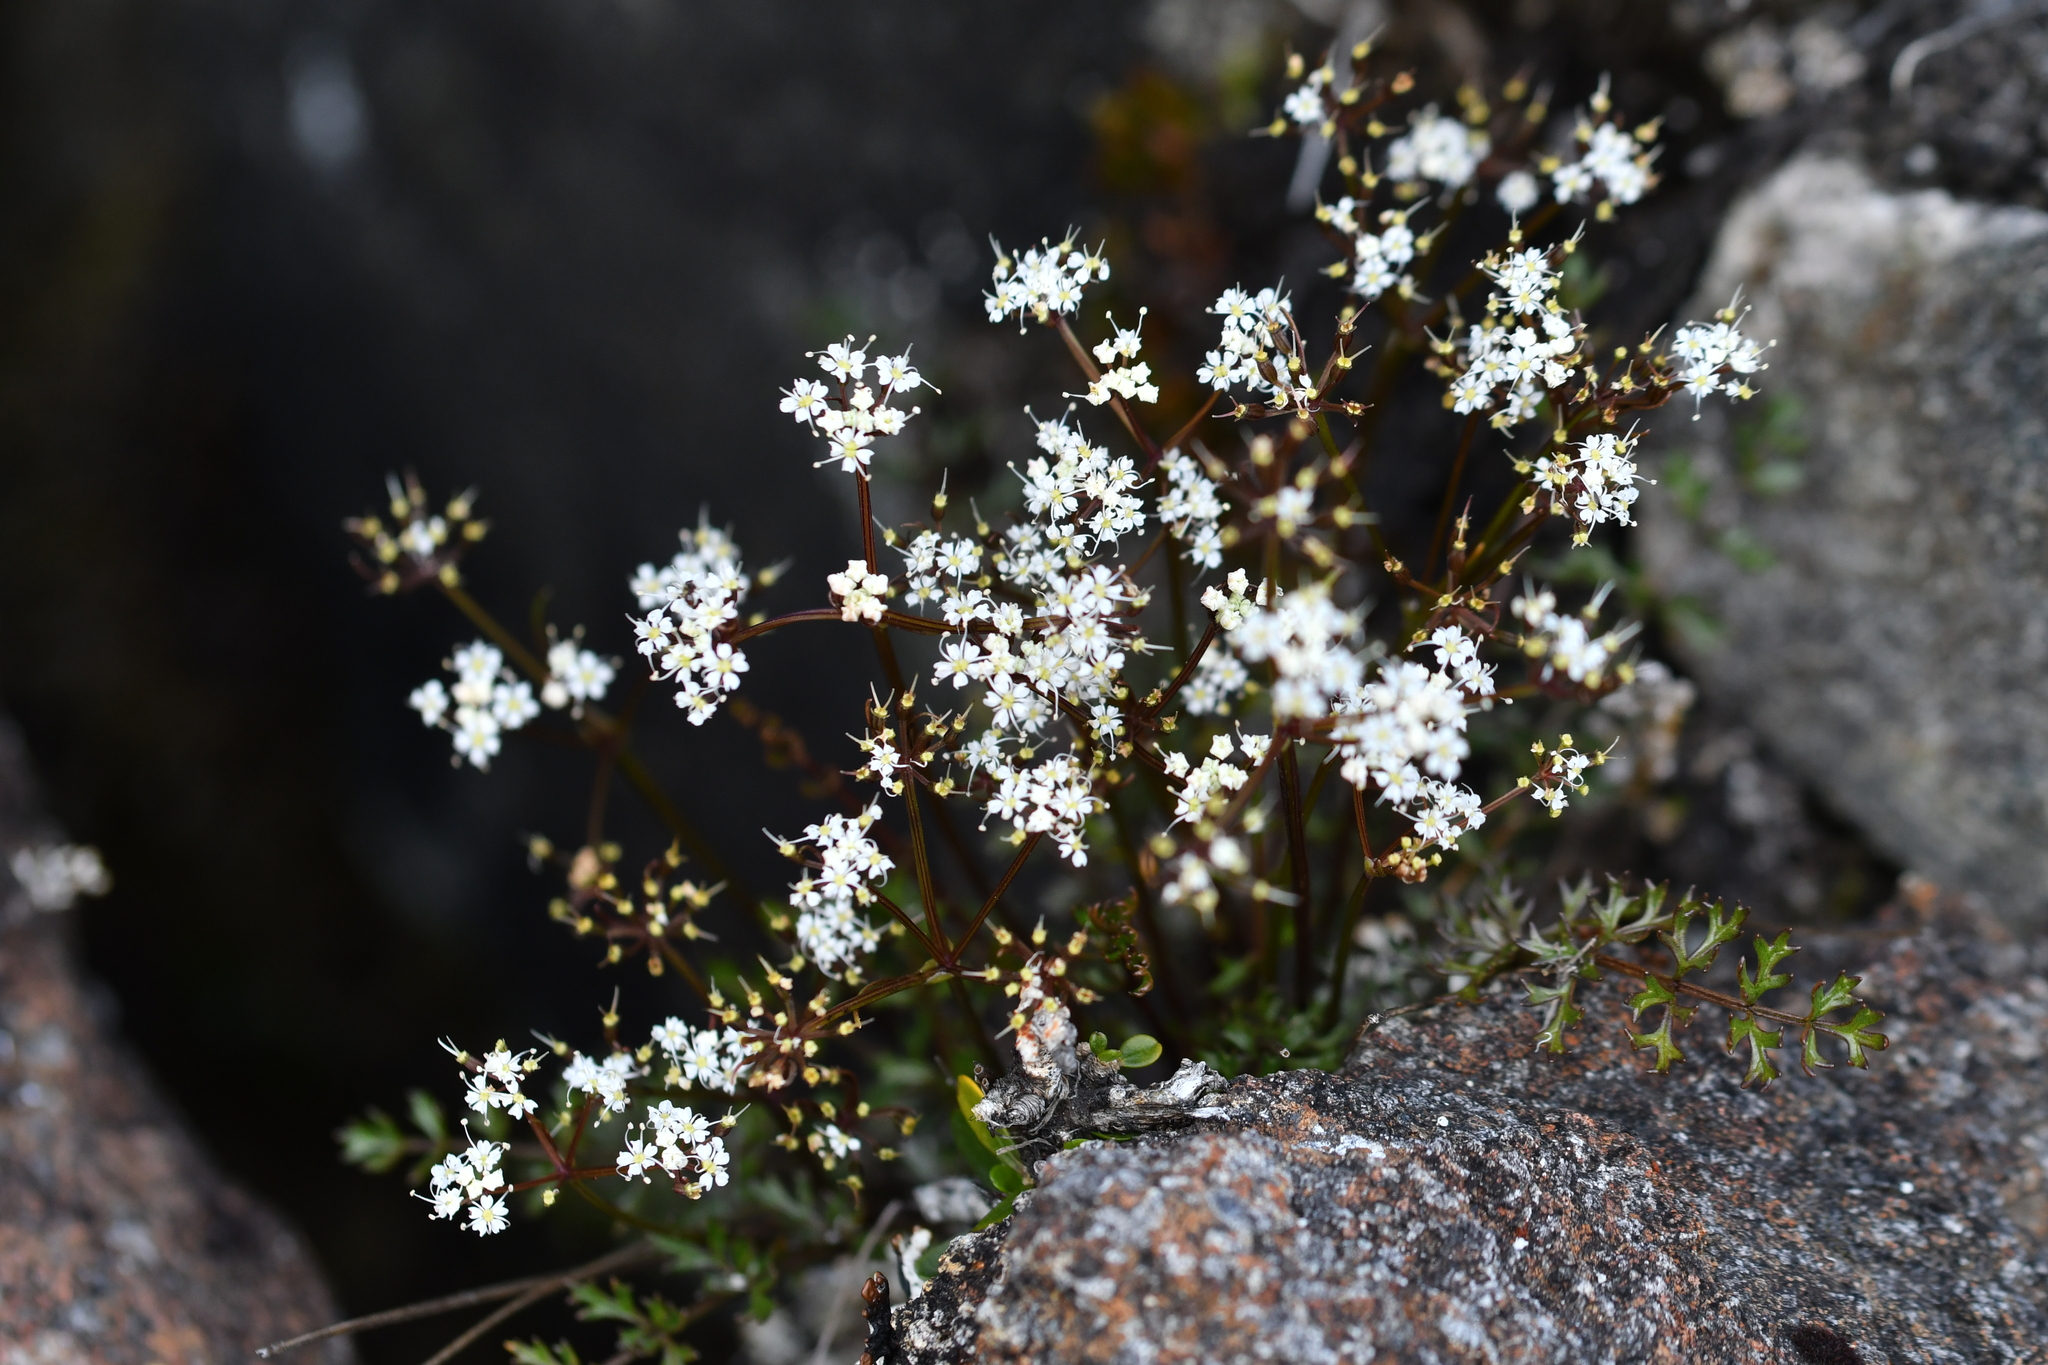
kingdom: Plantae
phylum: Tracheophyta
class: Magnoliopsida
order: Apiales
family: Apiaceae
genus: Gingidia
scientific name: Gingidia decipiens
